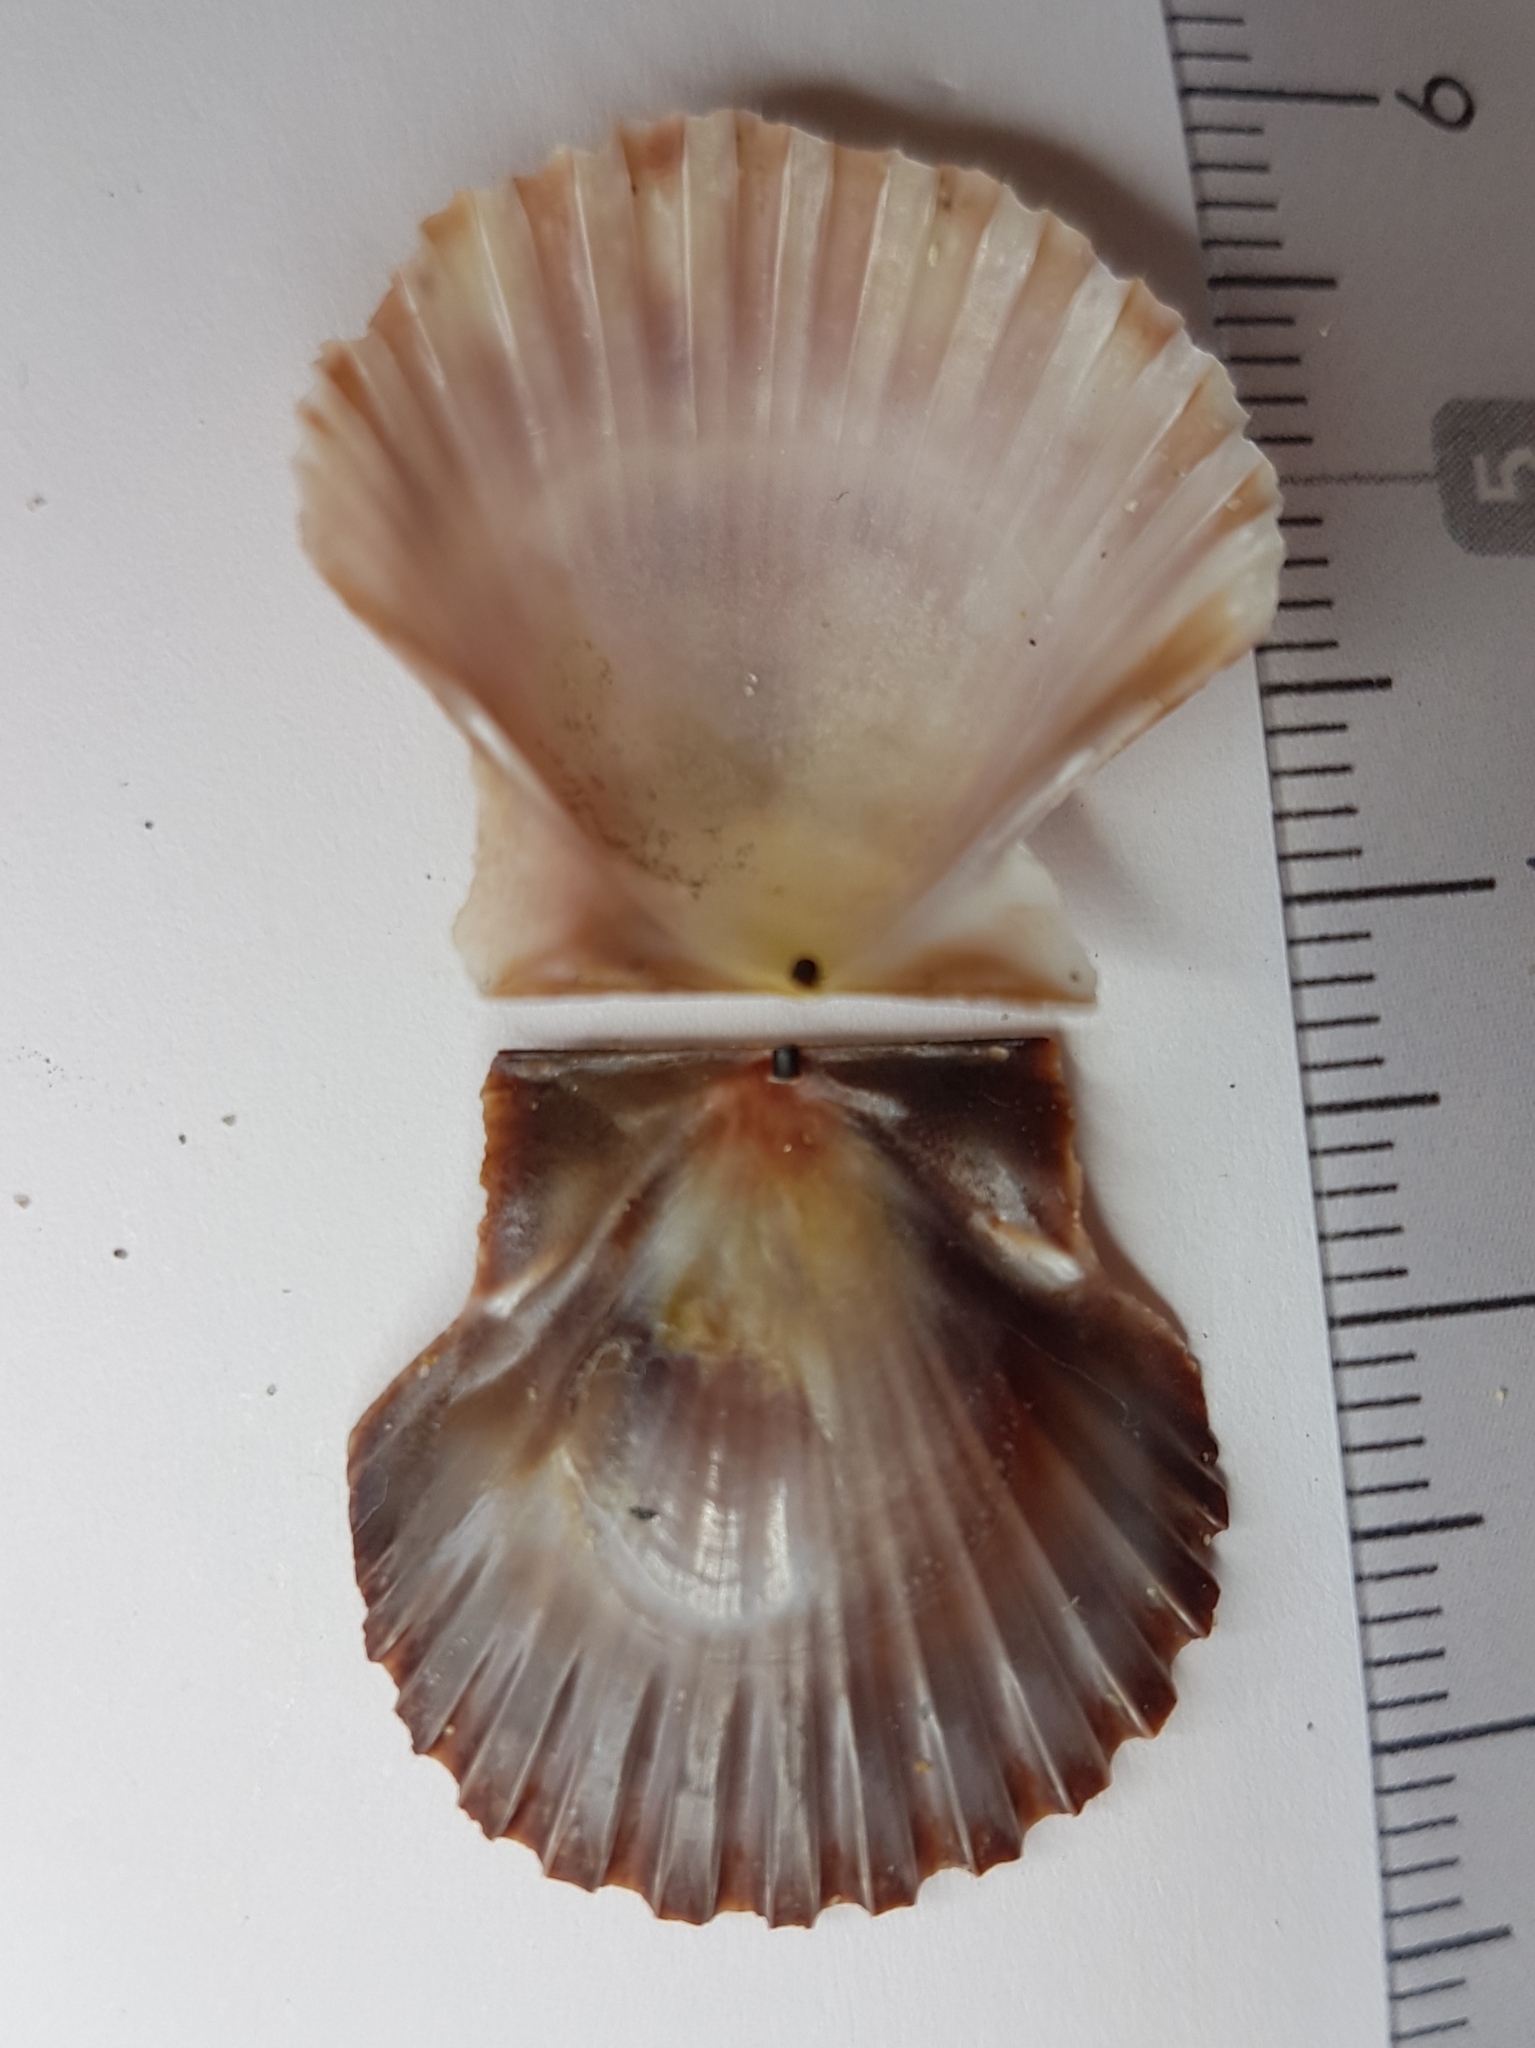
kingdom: Animalia
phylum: Mollusca
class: Bivalvia
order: Pectinida
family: Pectinidae
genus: Pecten
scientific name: Pecten jacobaeus
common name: St.james's scallop
